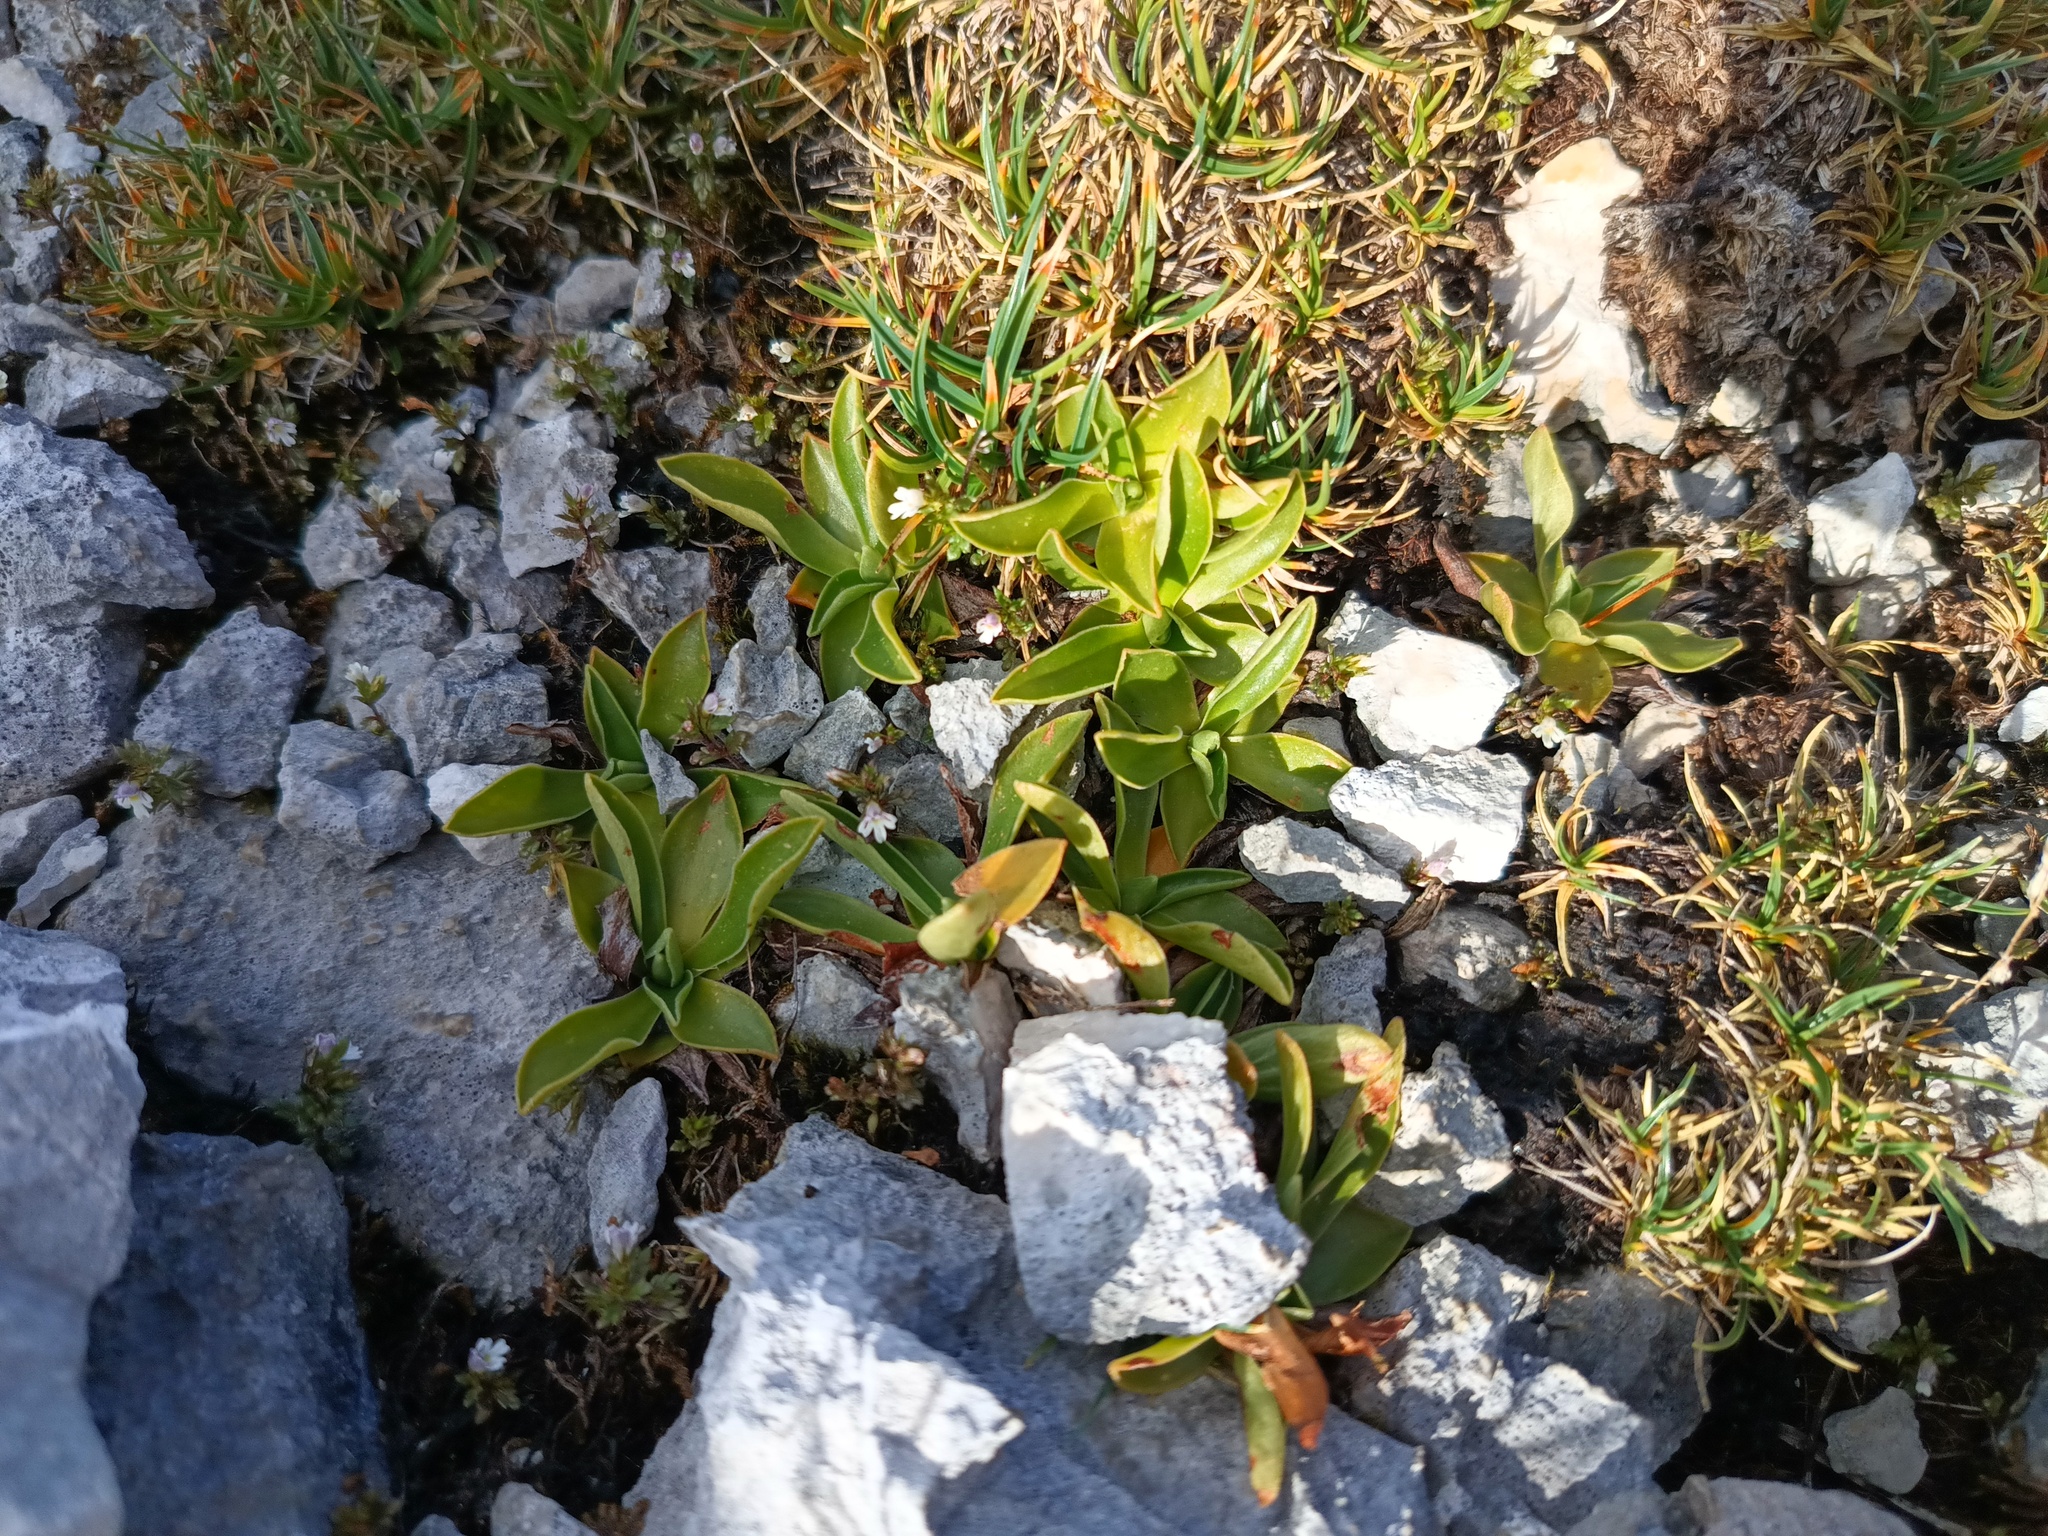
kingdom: Plantae
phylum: Tracheophyta
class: Magnoliopsida
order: Ericales
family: Primulaceae
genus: Primula
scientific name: Primula clusiana
